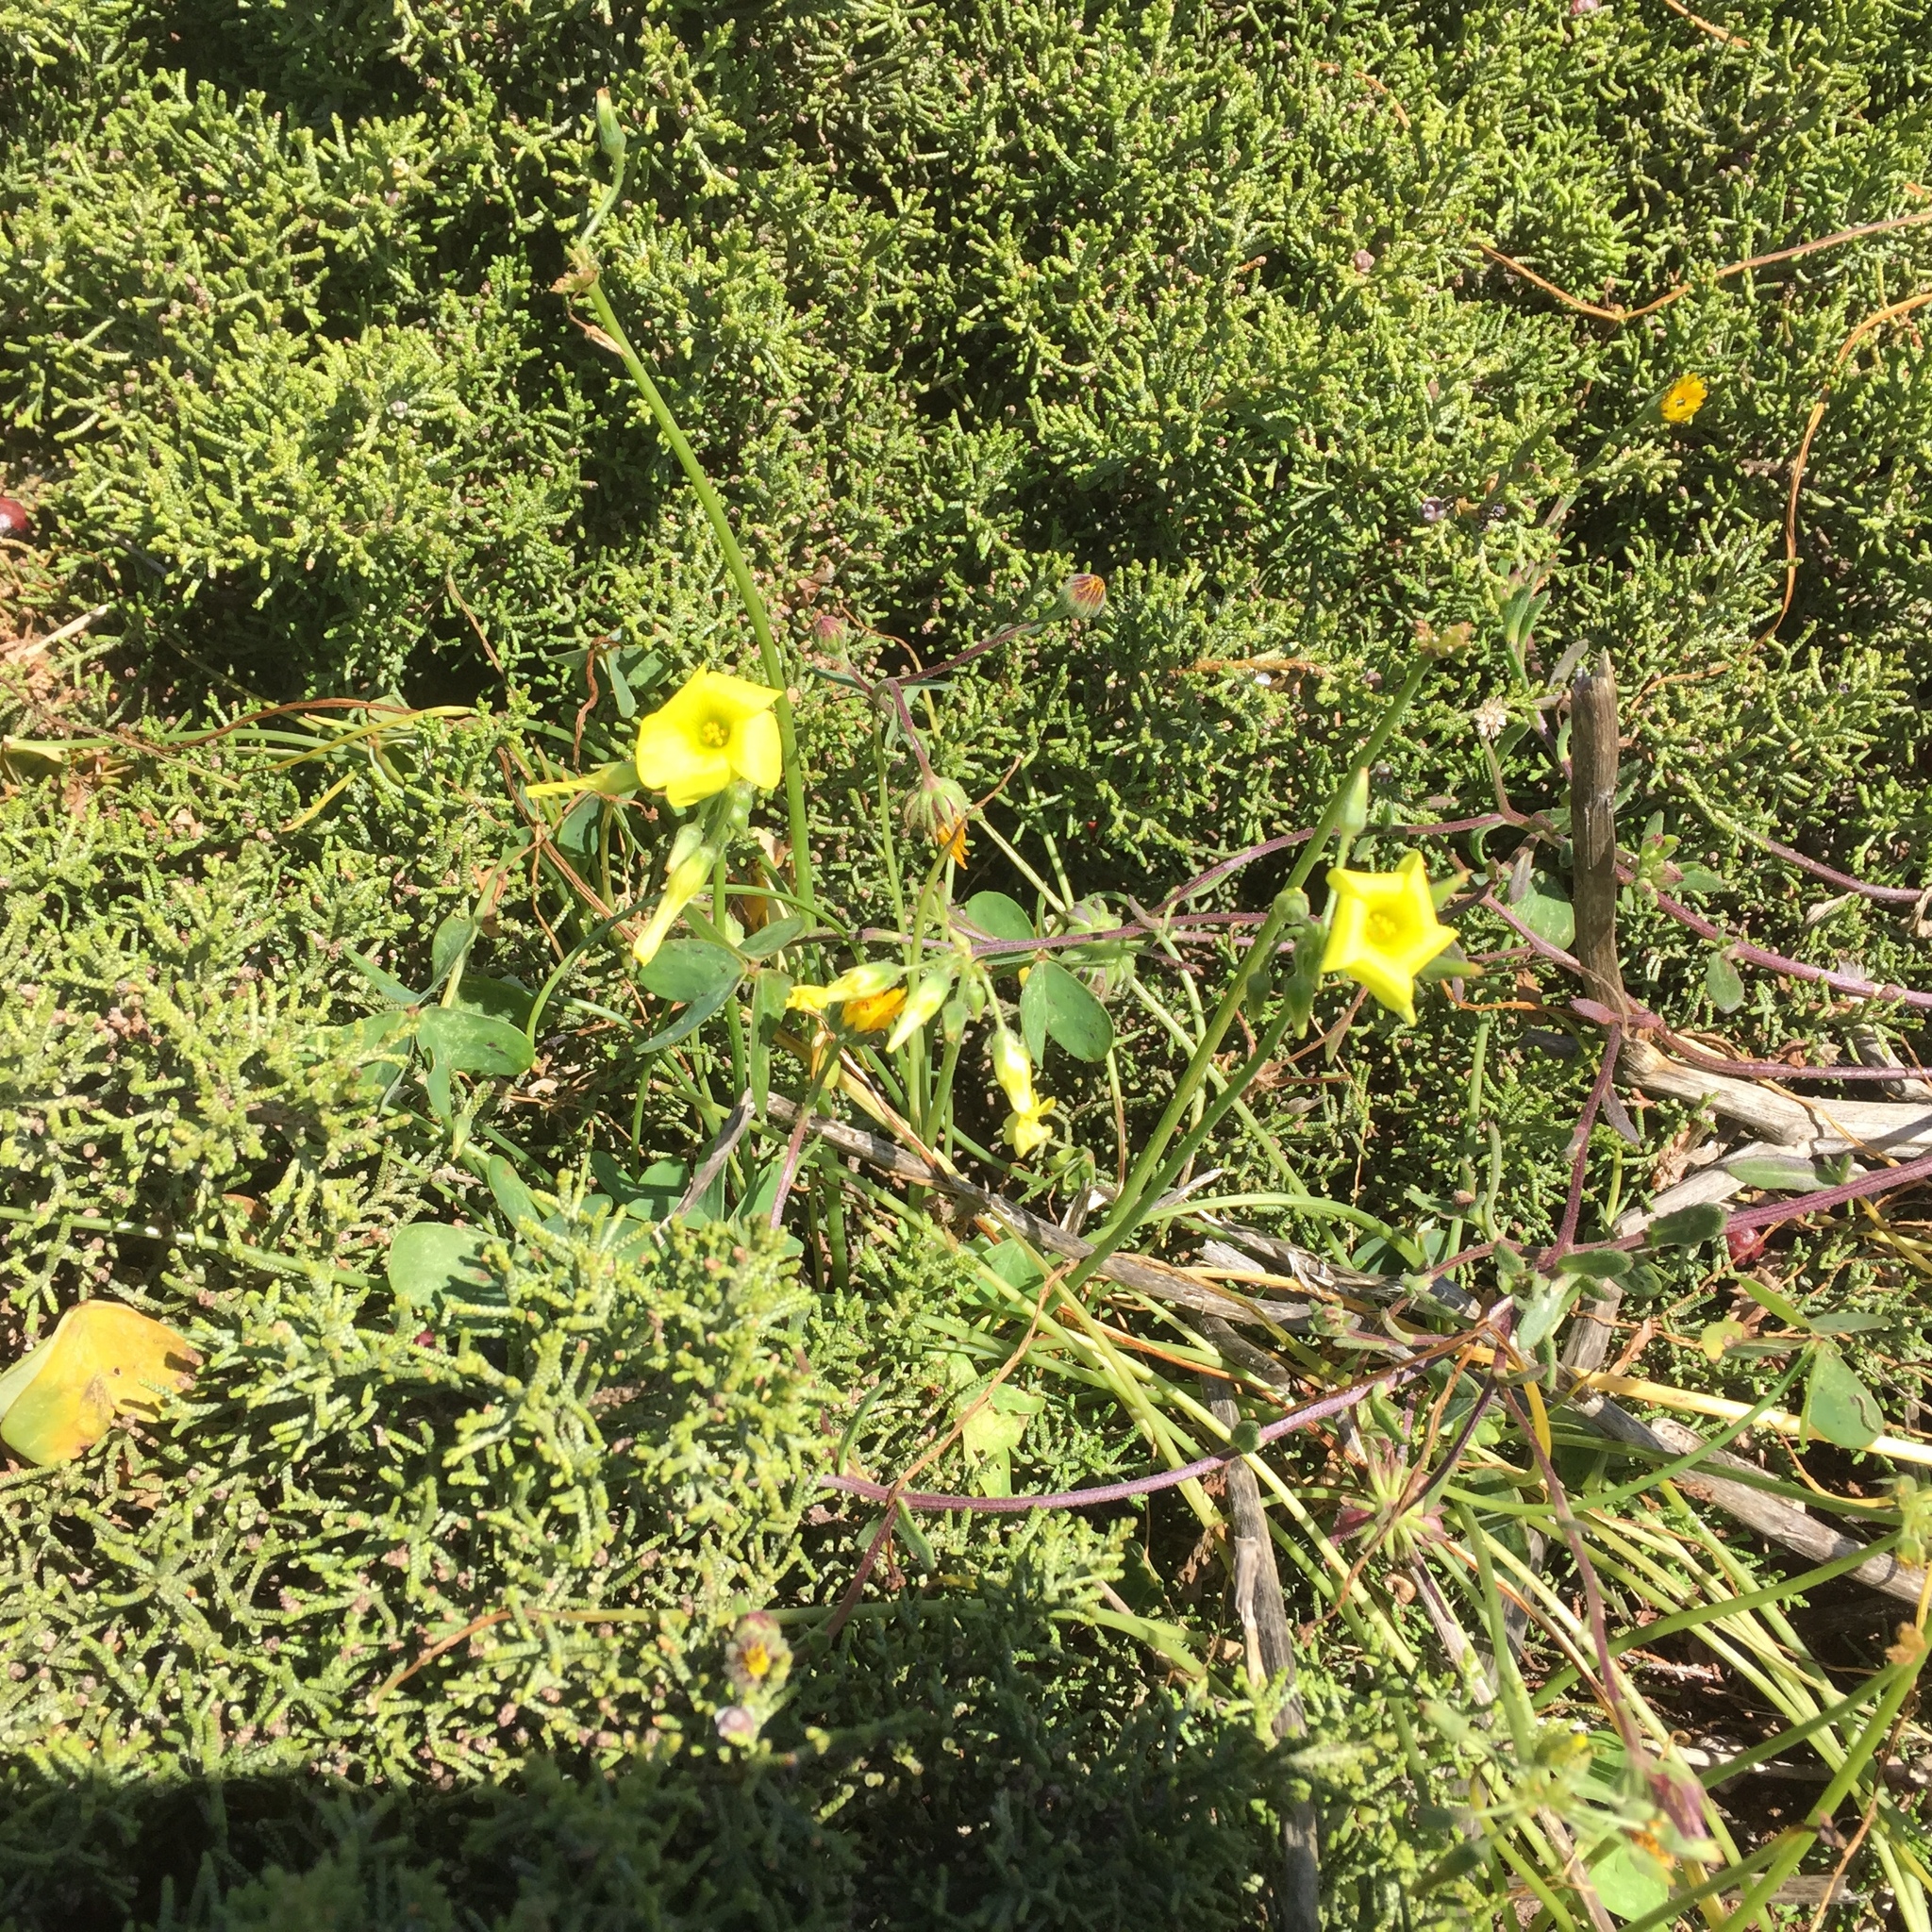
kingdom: Plantae
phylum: Tracheophyta
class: Magnoliopsida
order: Oxalidales
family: Oxalidaceae
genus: Oxalis
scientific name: Oxalis pes-caprae
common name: Bermuda-buttercup
